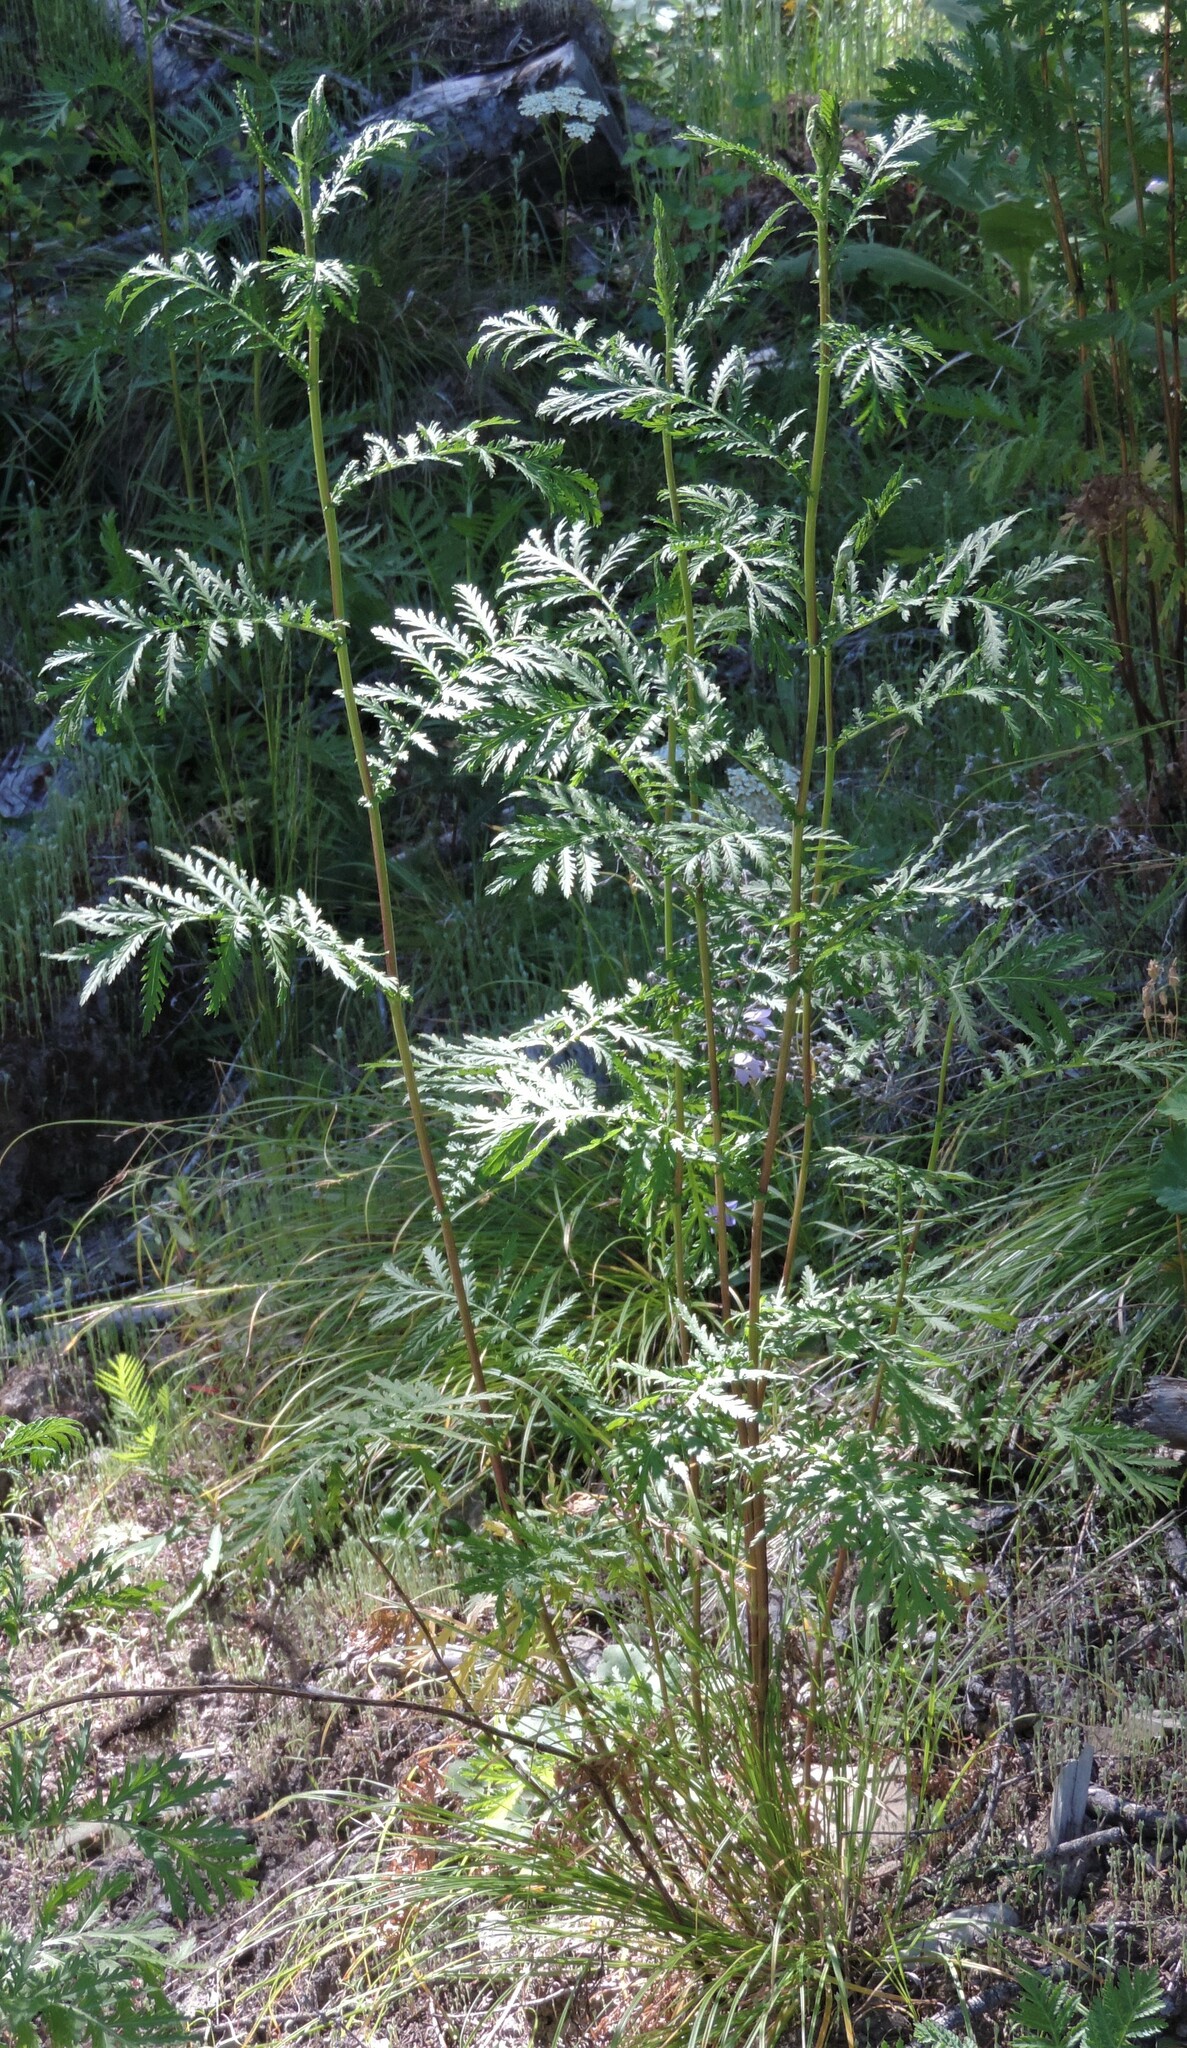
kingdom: Plantae
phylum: Tracheophyta
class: Magnoliopsida
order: Asterales
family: Asteraceae
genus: Tanacetum
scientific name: Tanacetum vulgare
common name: Common tansy
